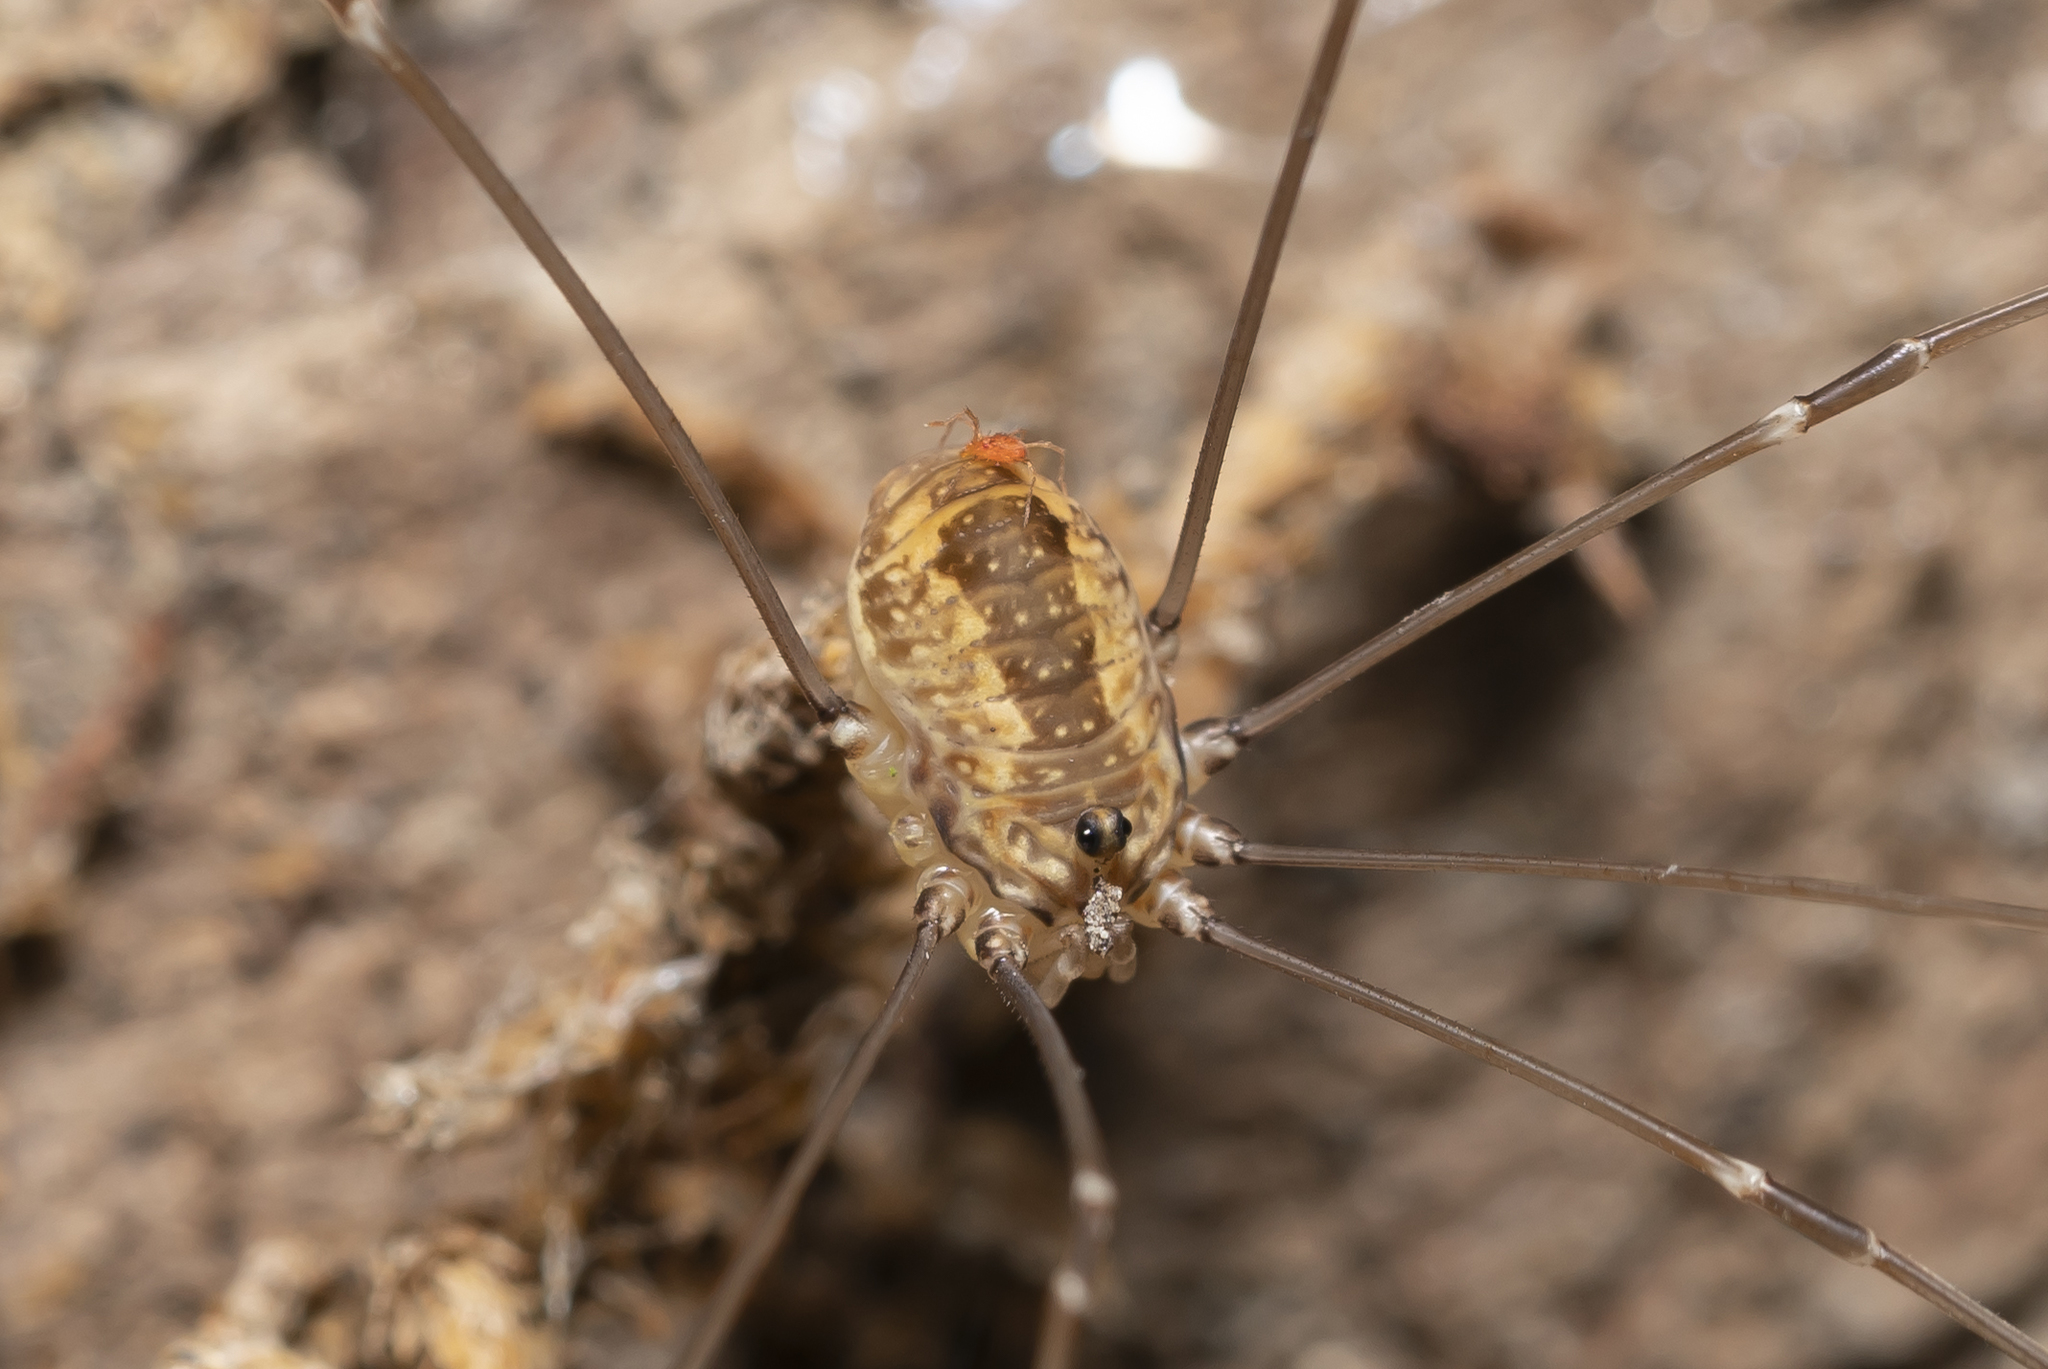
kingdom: Animalia
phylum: Arthropoda
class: Arachnida
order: Opiliones
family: Sclerosomatidae
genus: Leiobunum
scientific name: Leiobunum rotundum
